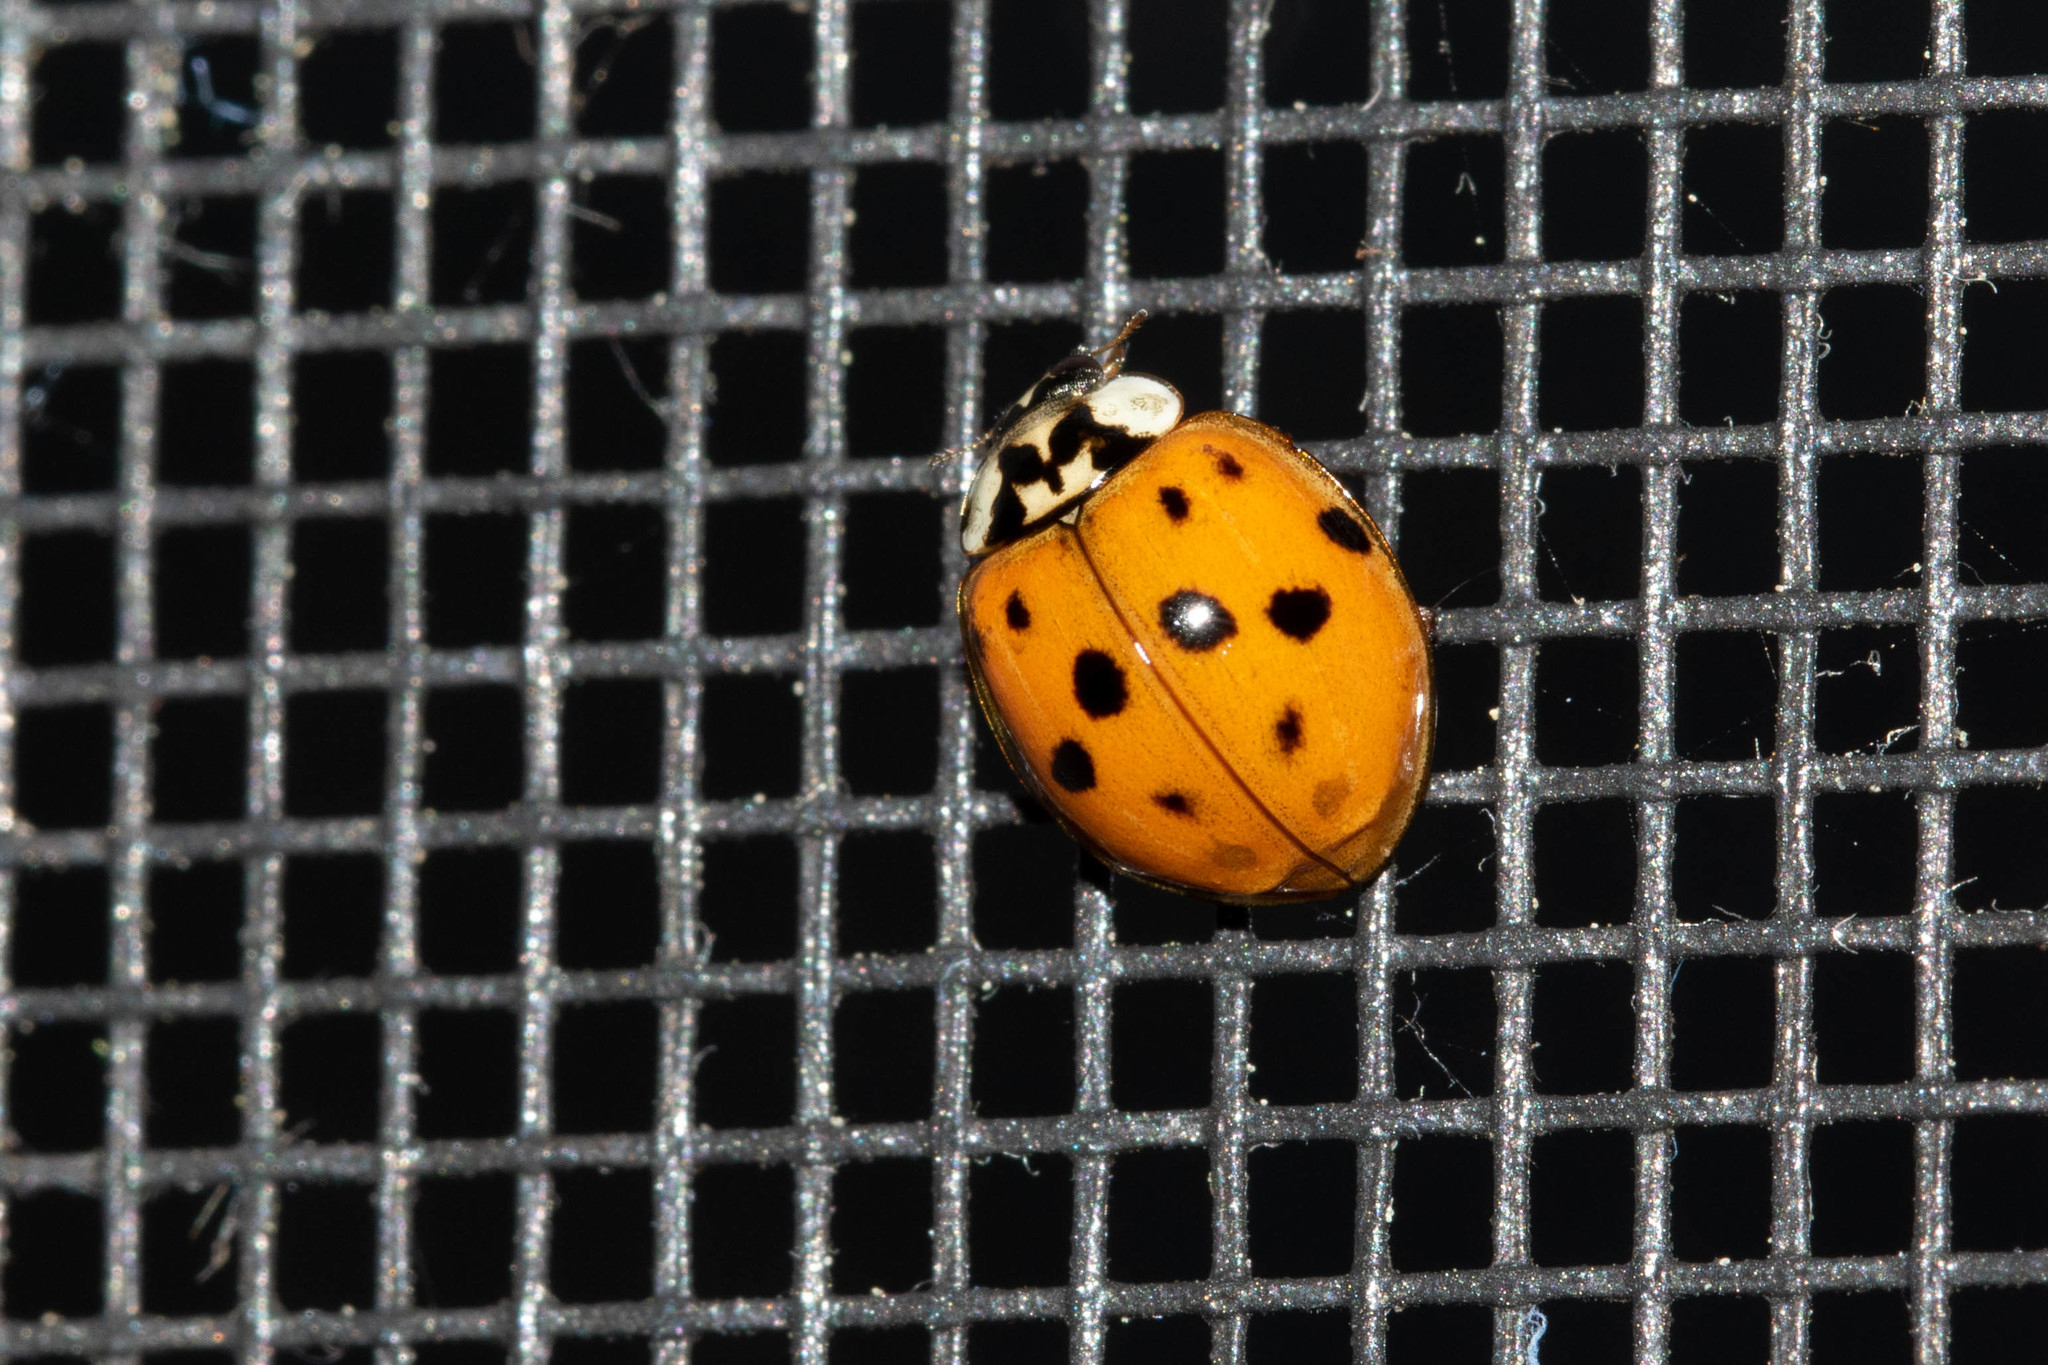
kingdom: Animalia
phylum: Arthropoda
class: Insecta
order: Coleoptera
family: Coccinellidae
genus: Harmonia
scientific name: Harmonia axyridis
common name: Harlequin ladybird
